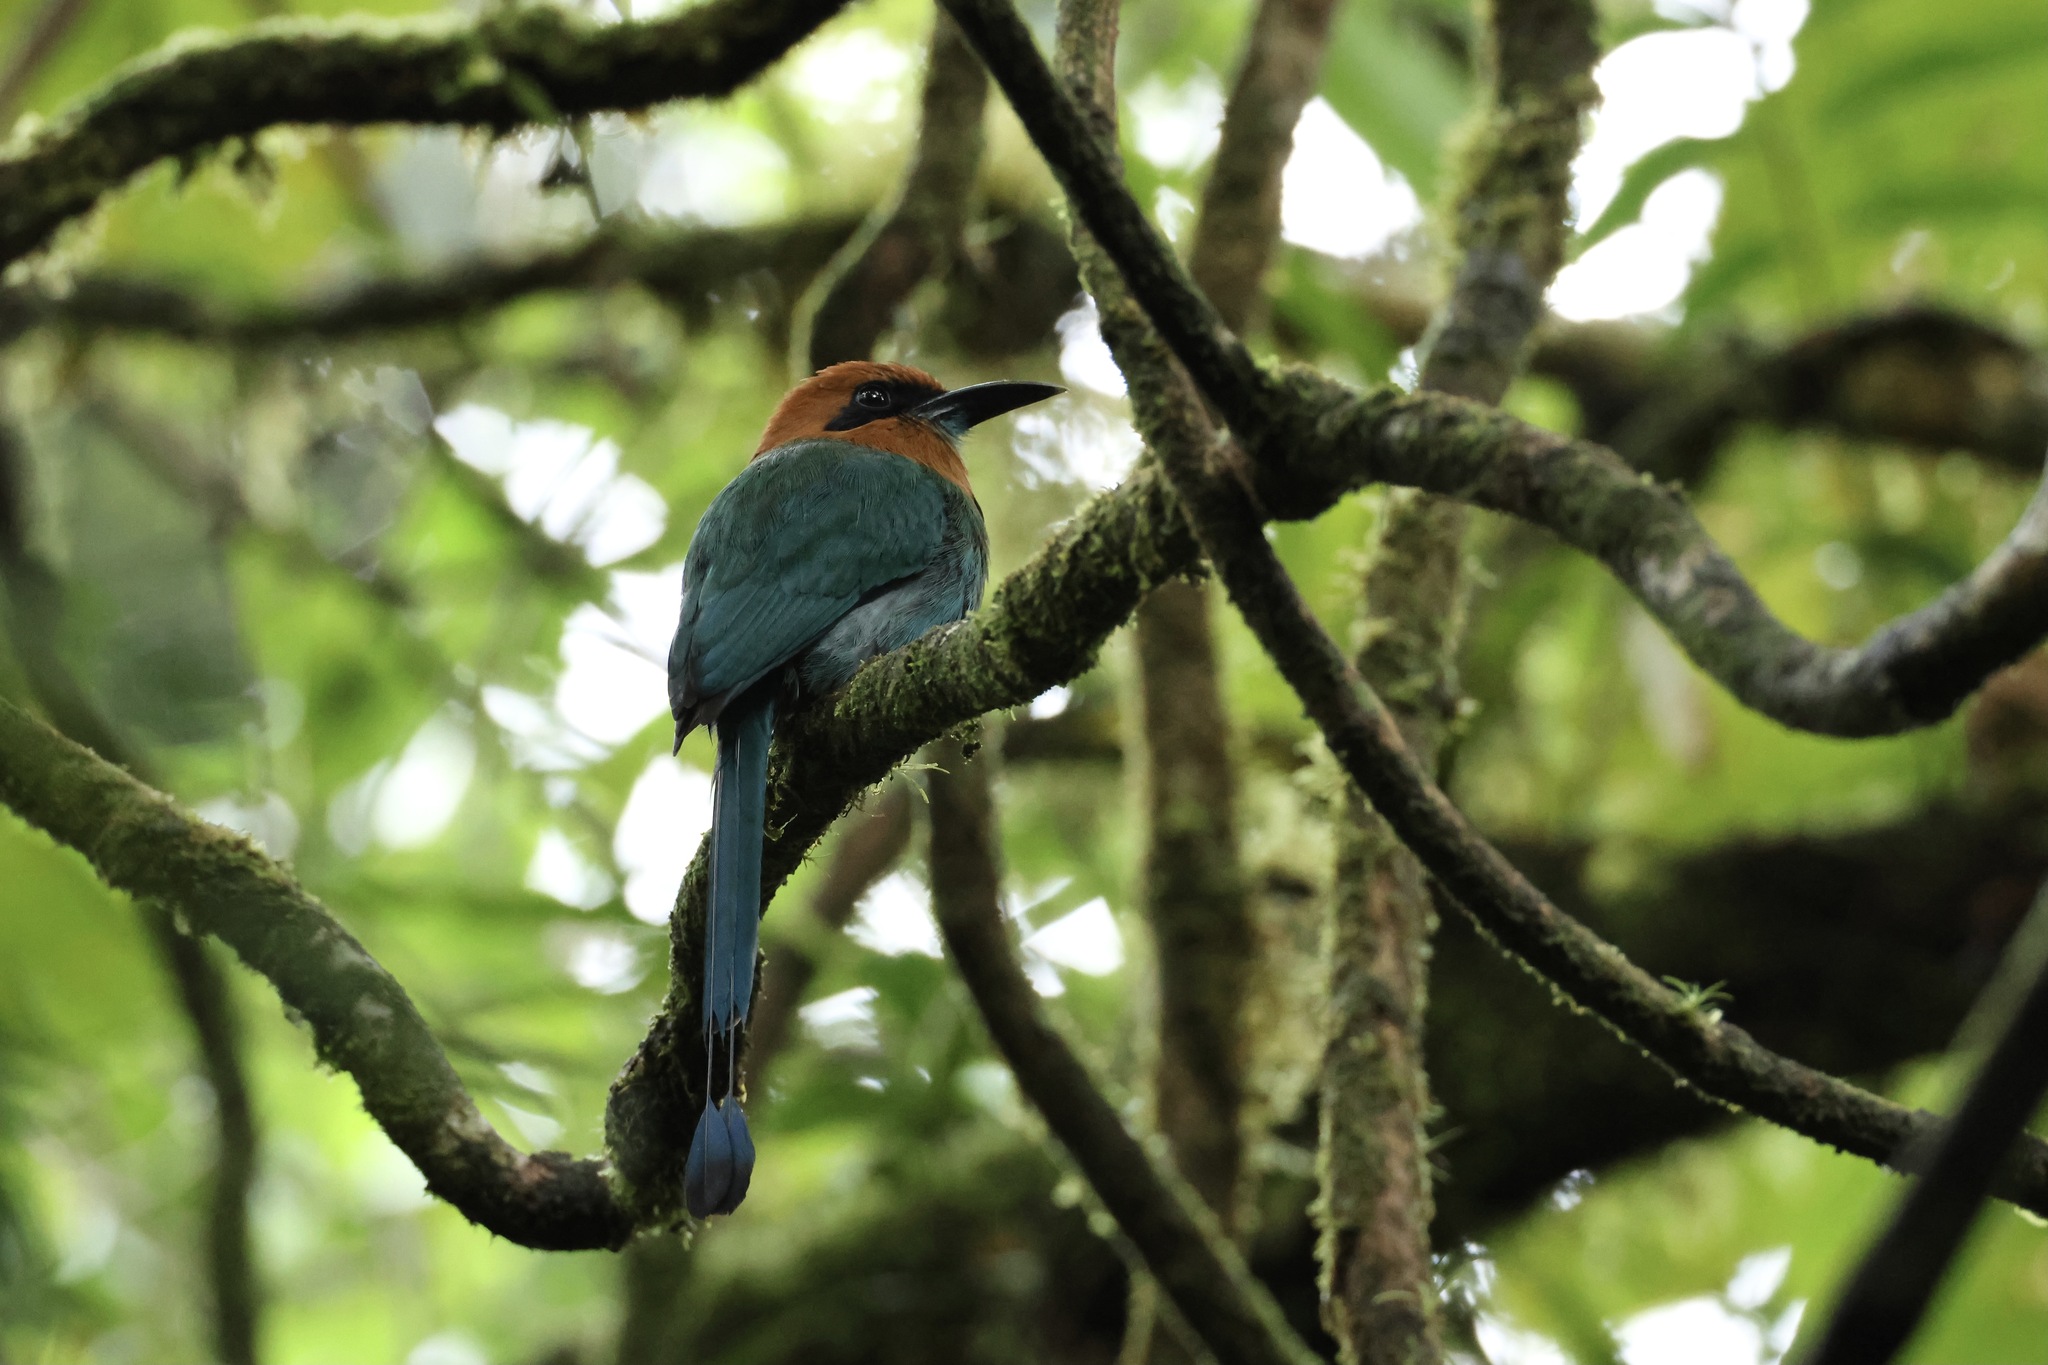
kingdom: Animalia
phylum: Chordata
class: Aves
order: Coraciiformes
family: Momotidae
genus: Electron
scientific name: Electron platyrhynchum
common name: Broad-billed motmot
